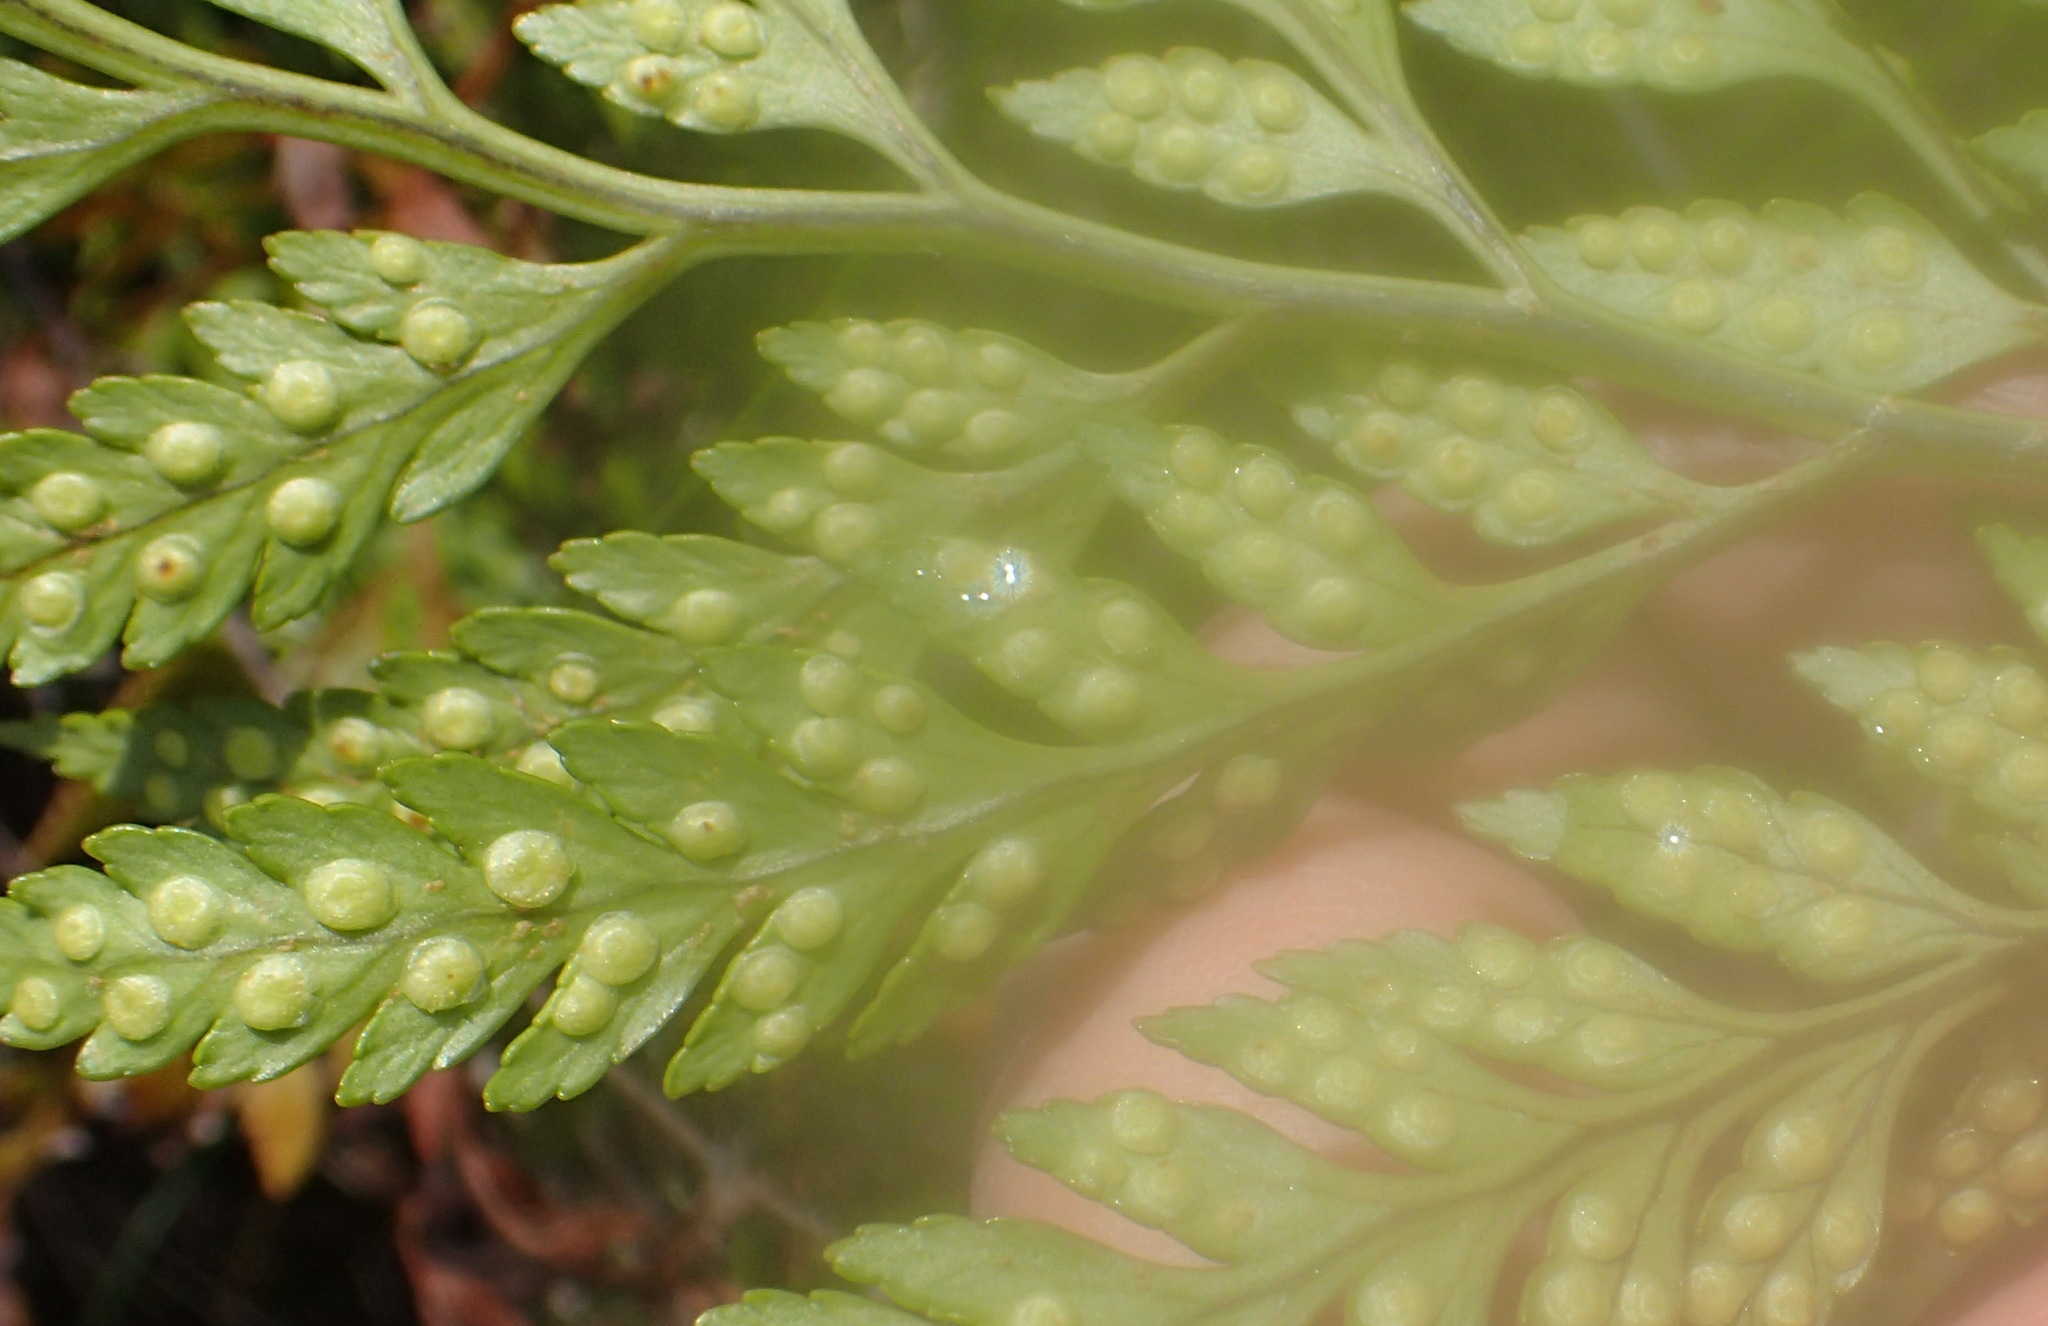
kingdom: Plantae
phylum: Tracheophyta
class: Polypodiopsida
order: Polypodiales
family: Dryopteridaceae
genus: Rumohra
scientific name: Rumohra adiantiformis
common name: Leather fern
